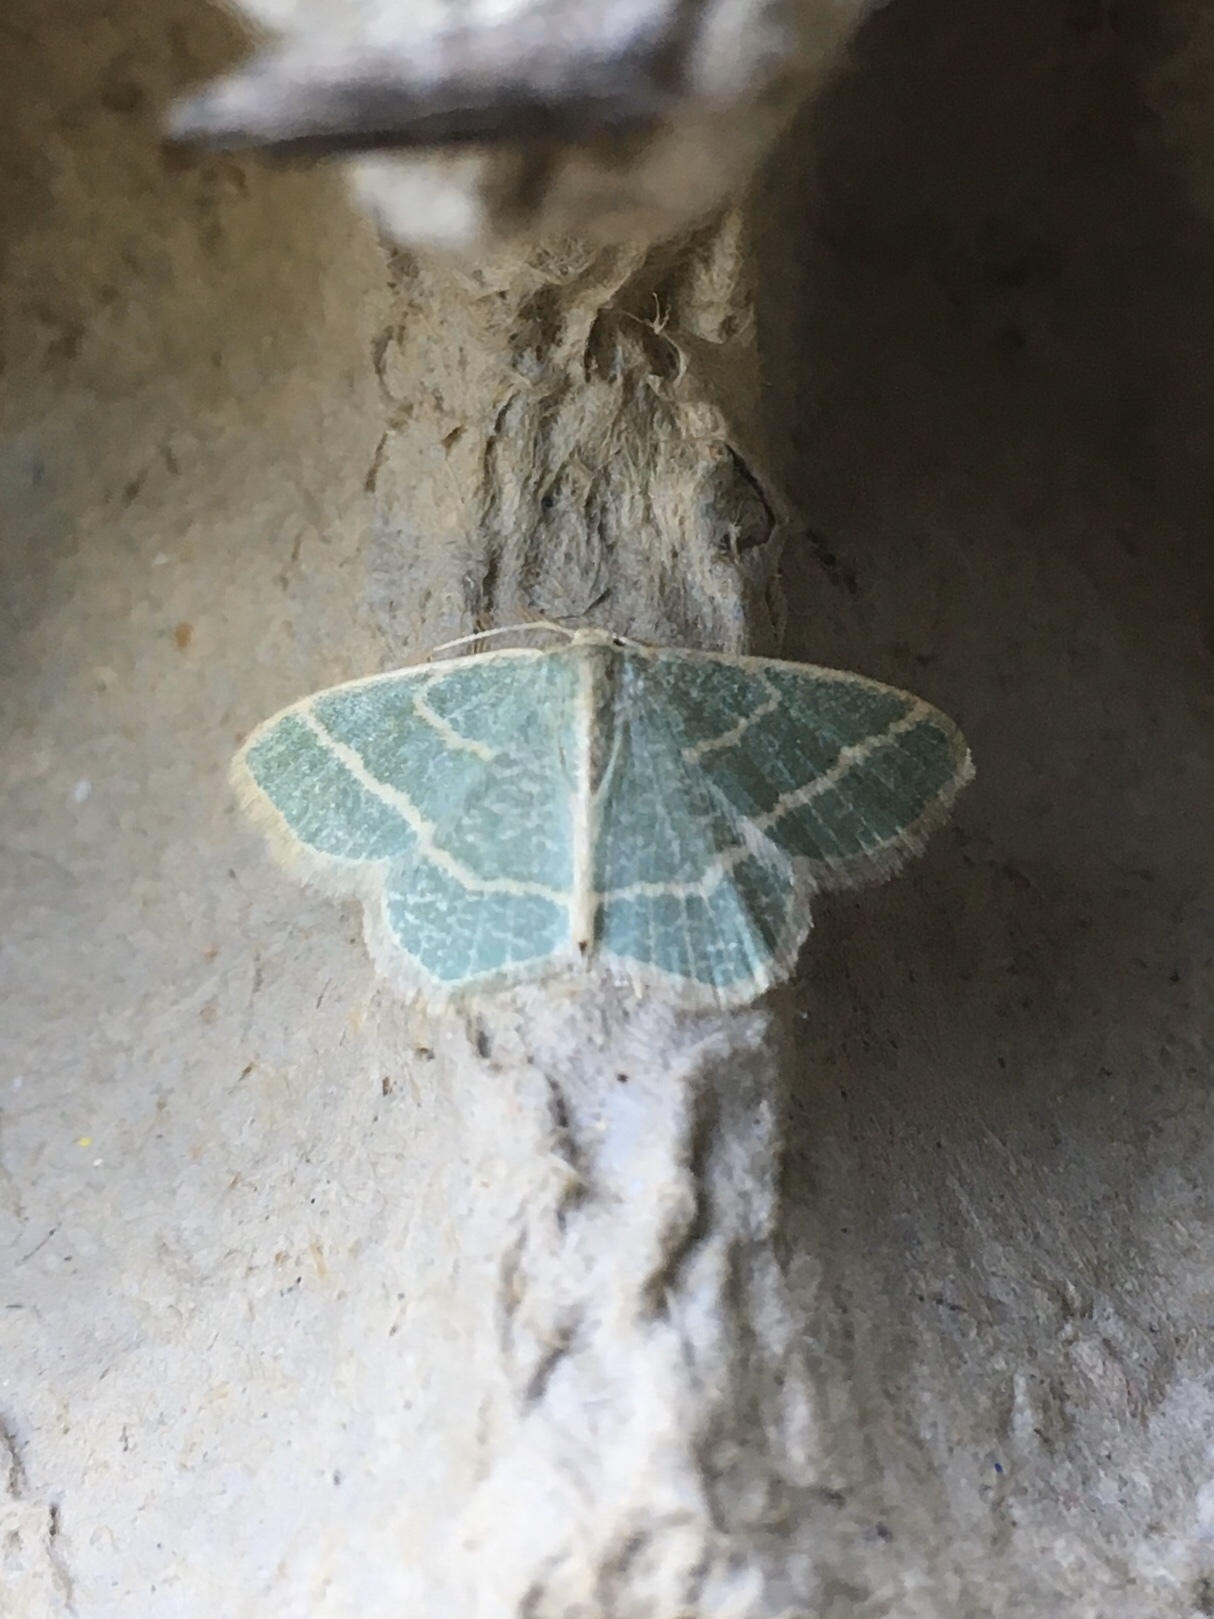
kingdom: Animalia
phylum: Arthropoda
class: Insecta
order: Lepidoptera
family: Geometridae
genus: Chlorochlamys
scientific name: Chlorochlamys chloroleucaria
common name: Blackberry looper
